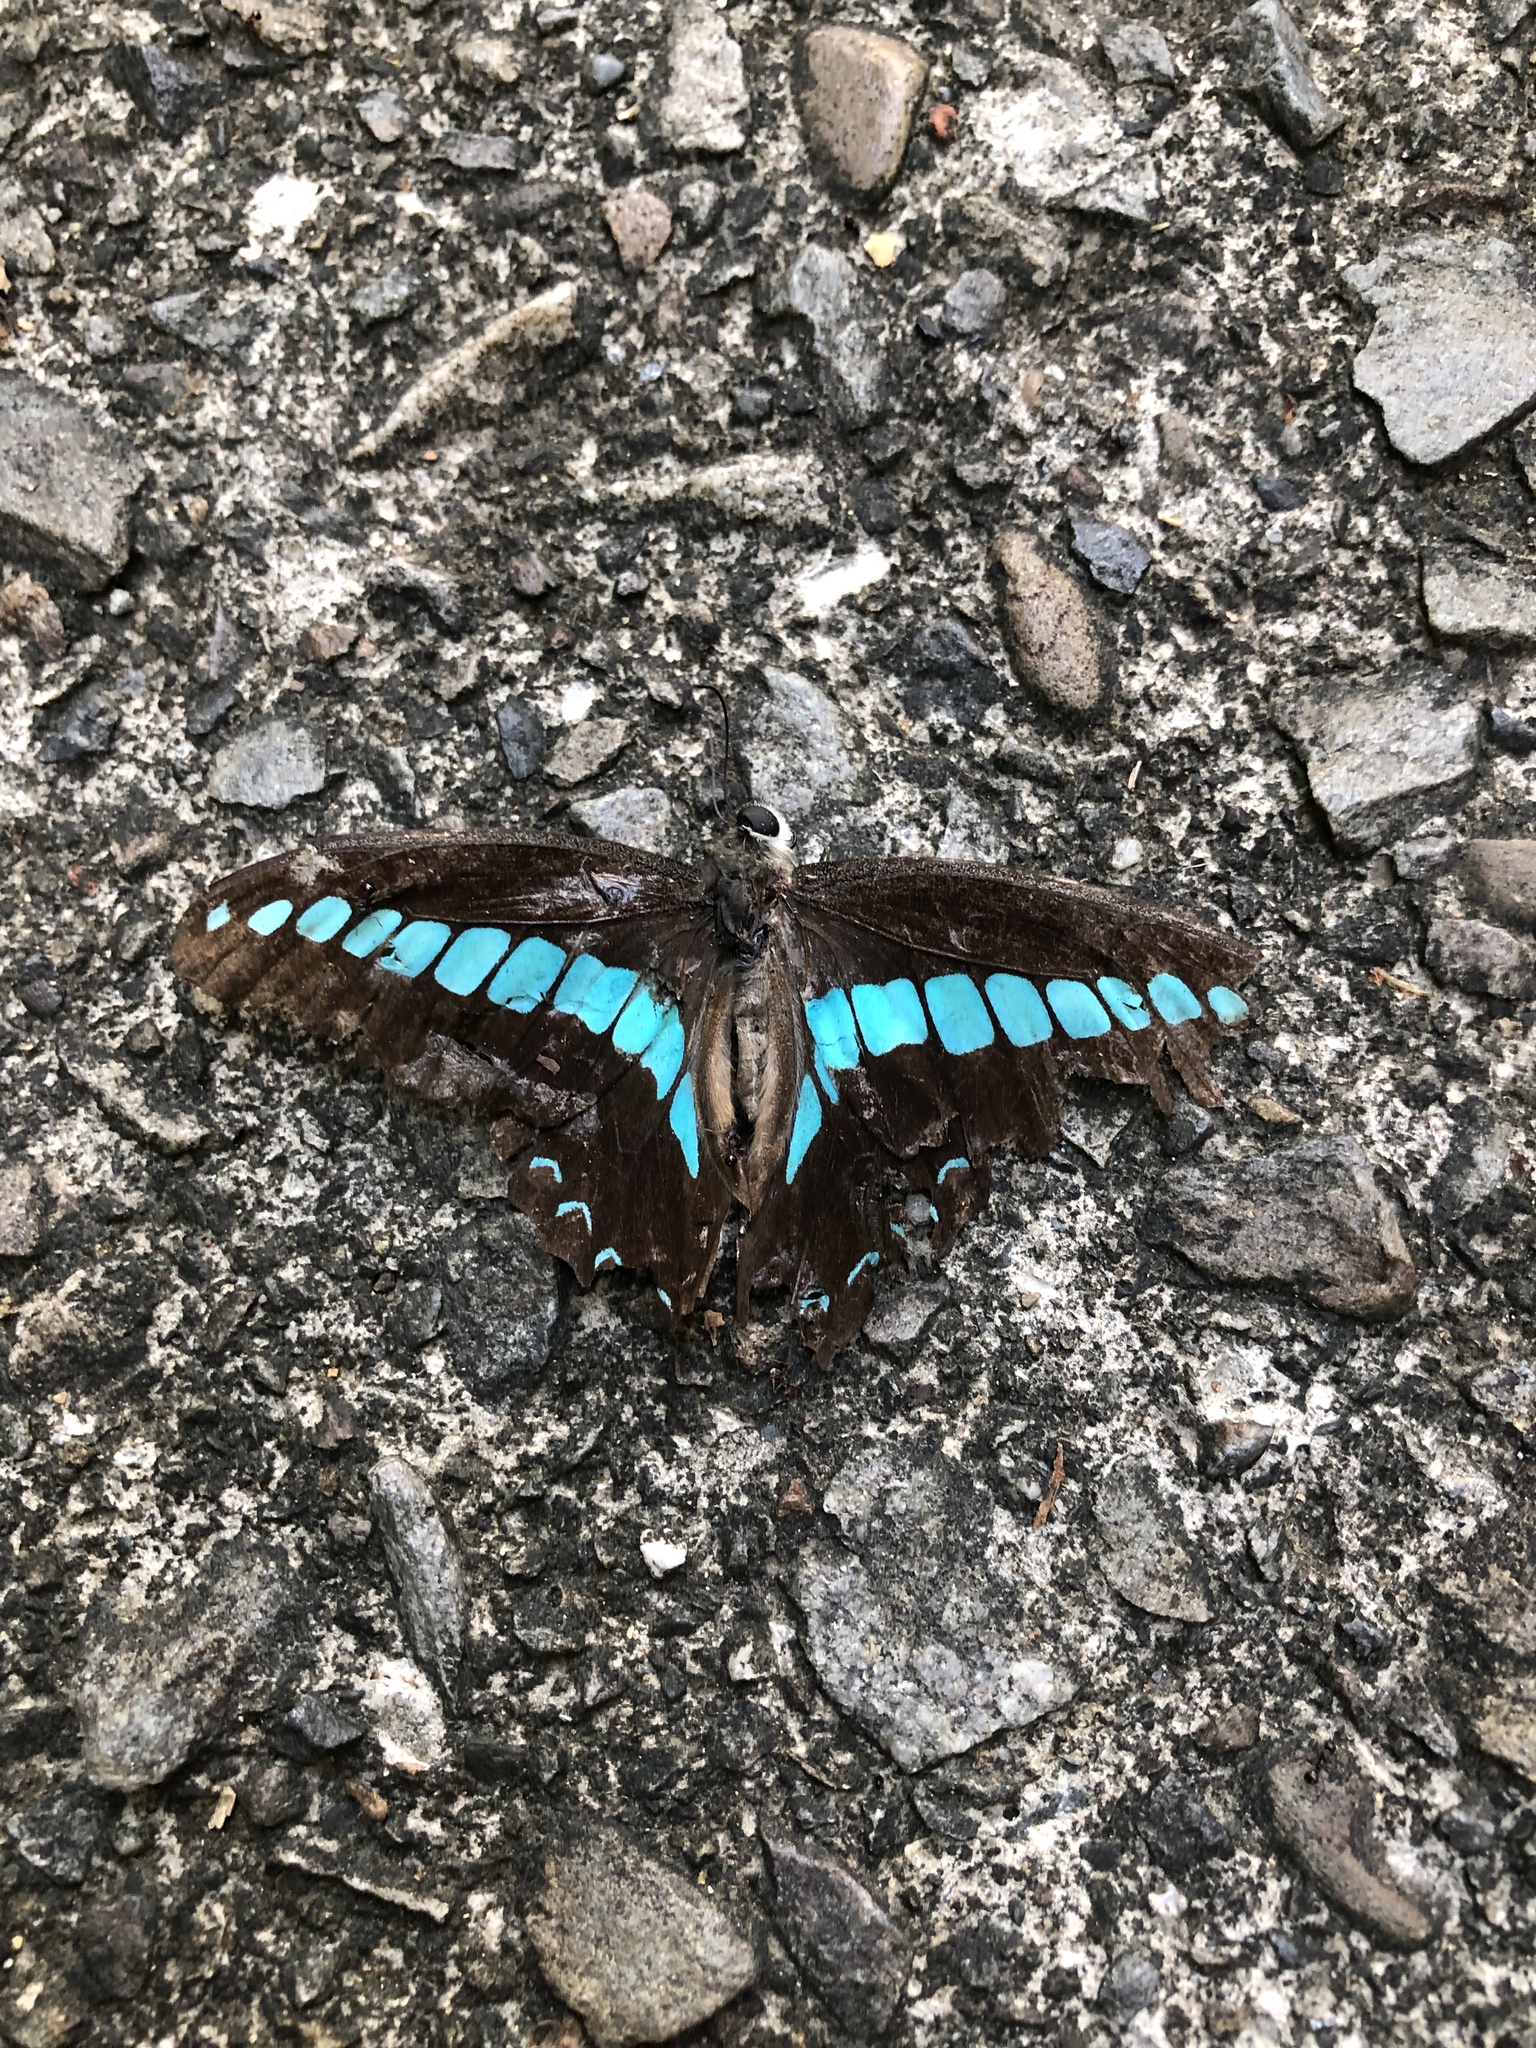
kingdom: Fungi
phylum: Ascomycota
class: Sordariomycetes
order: Microascales
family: Microascaceae
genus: Graphium
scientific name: Graphium sarpedon
